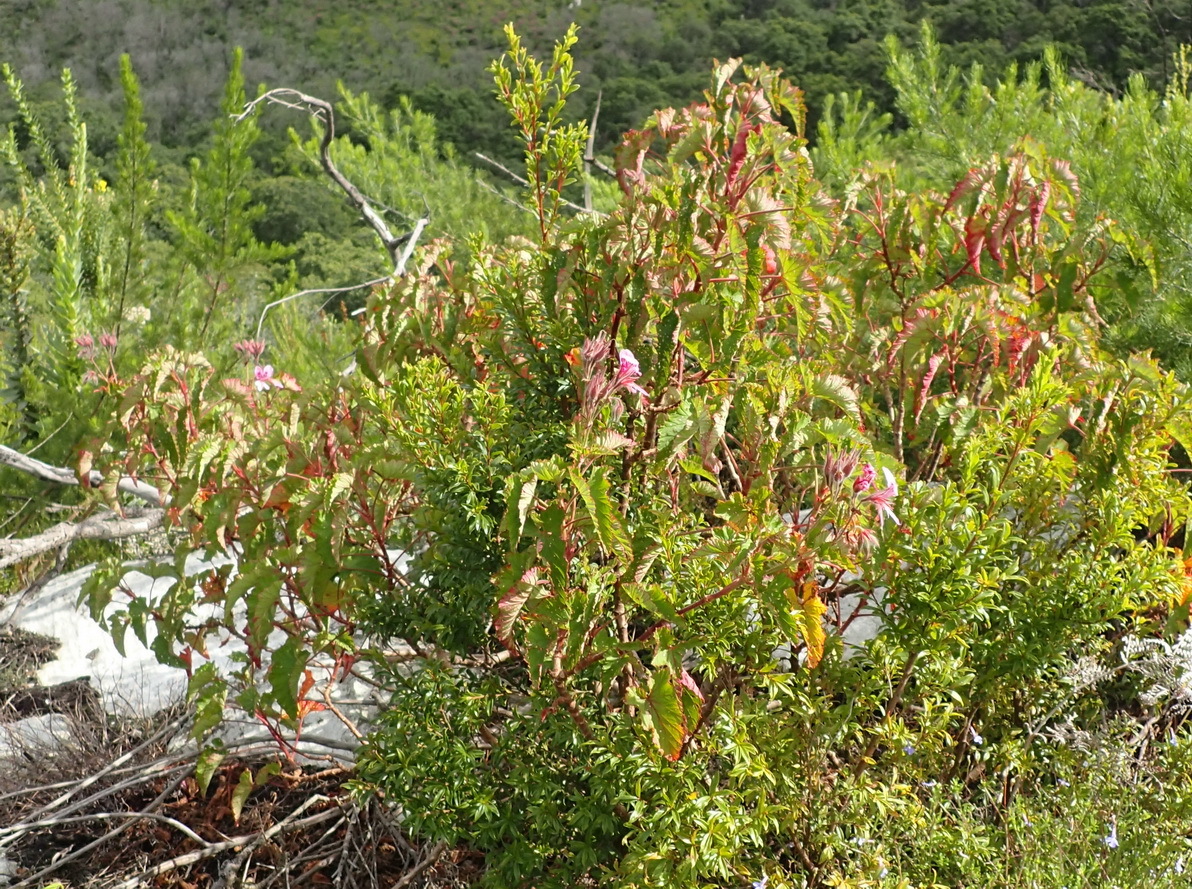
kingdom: Plantae
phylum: Tracheophyta
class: Magnoliopsida
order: Geraniales
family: Geraniaceae
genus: Pelargonium
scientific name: Pelargonium cordifolium
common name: Heart-leaf pelargonium
